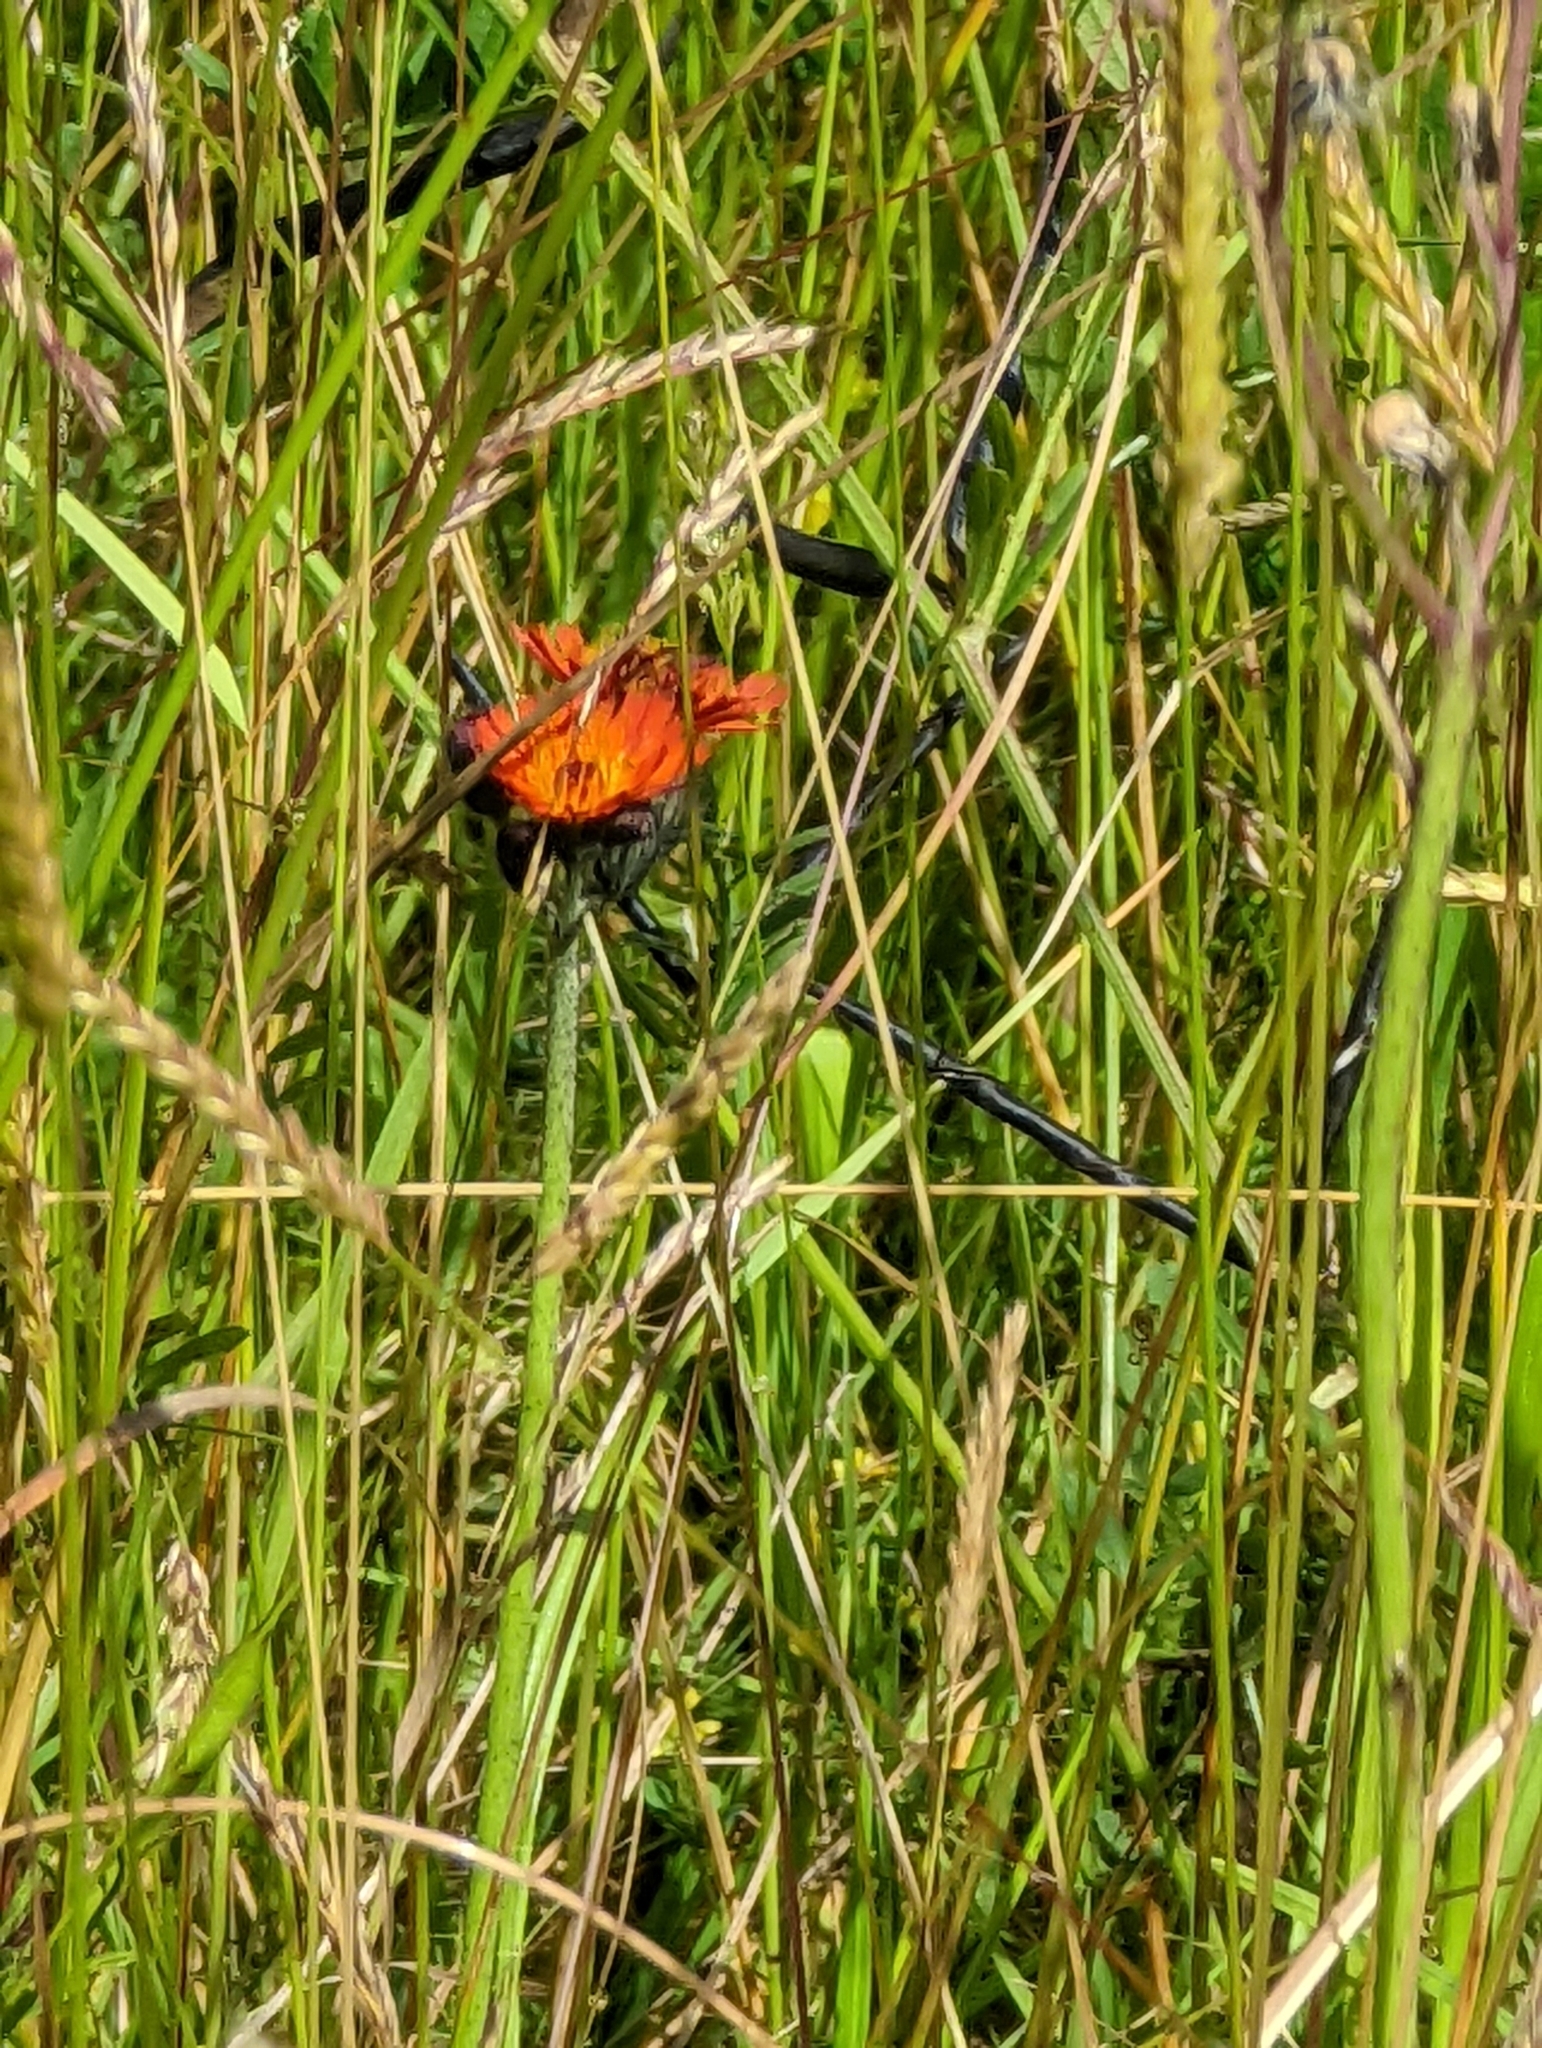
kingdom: Plantae
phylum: Tracheophyta
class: Magnoliopsida
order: Asterales
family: Asteraceae
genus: Pilosella
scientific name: Pilosella aurantiaca
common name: Fox-and-cubs
